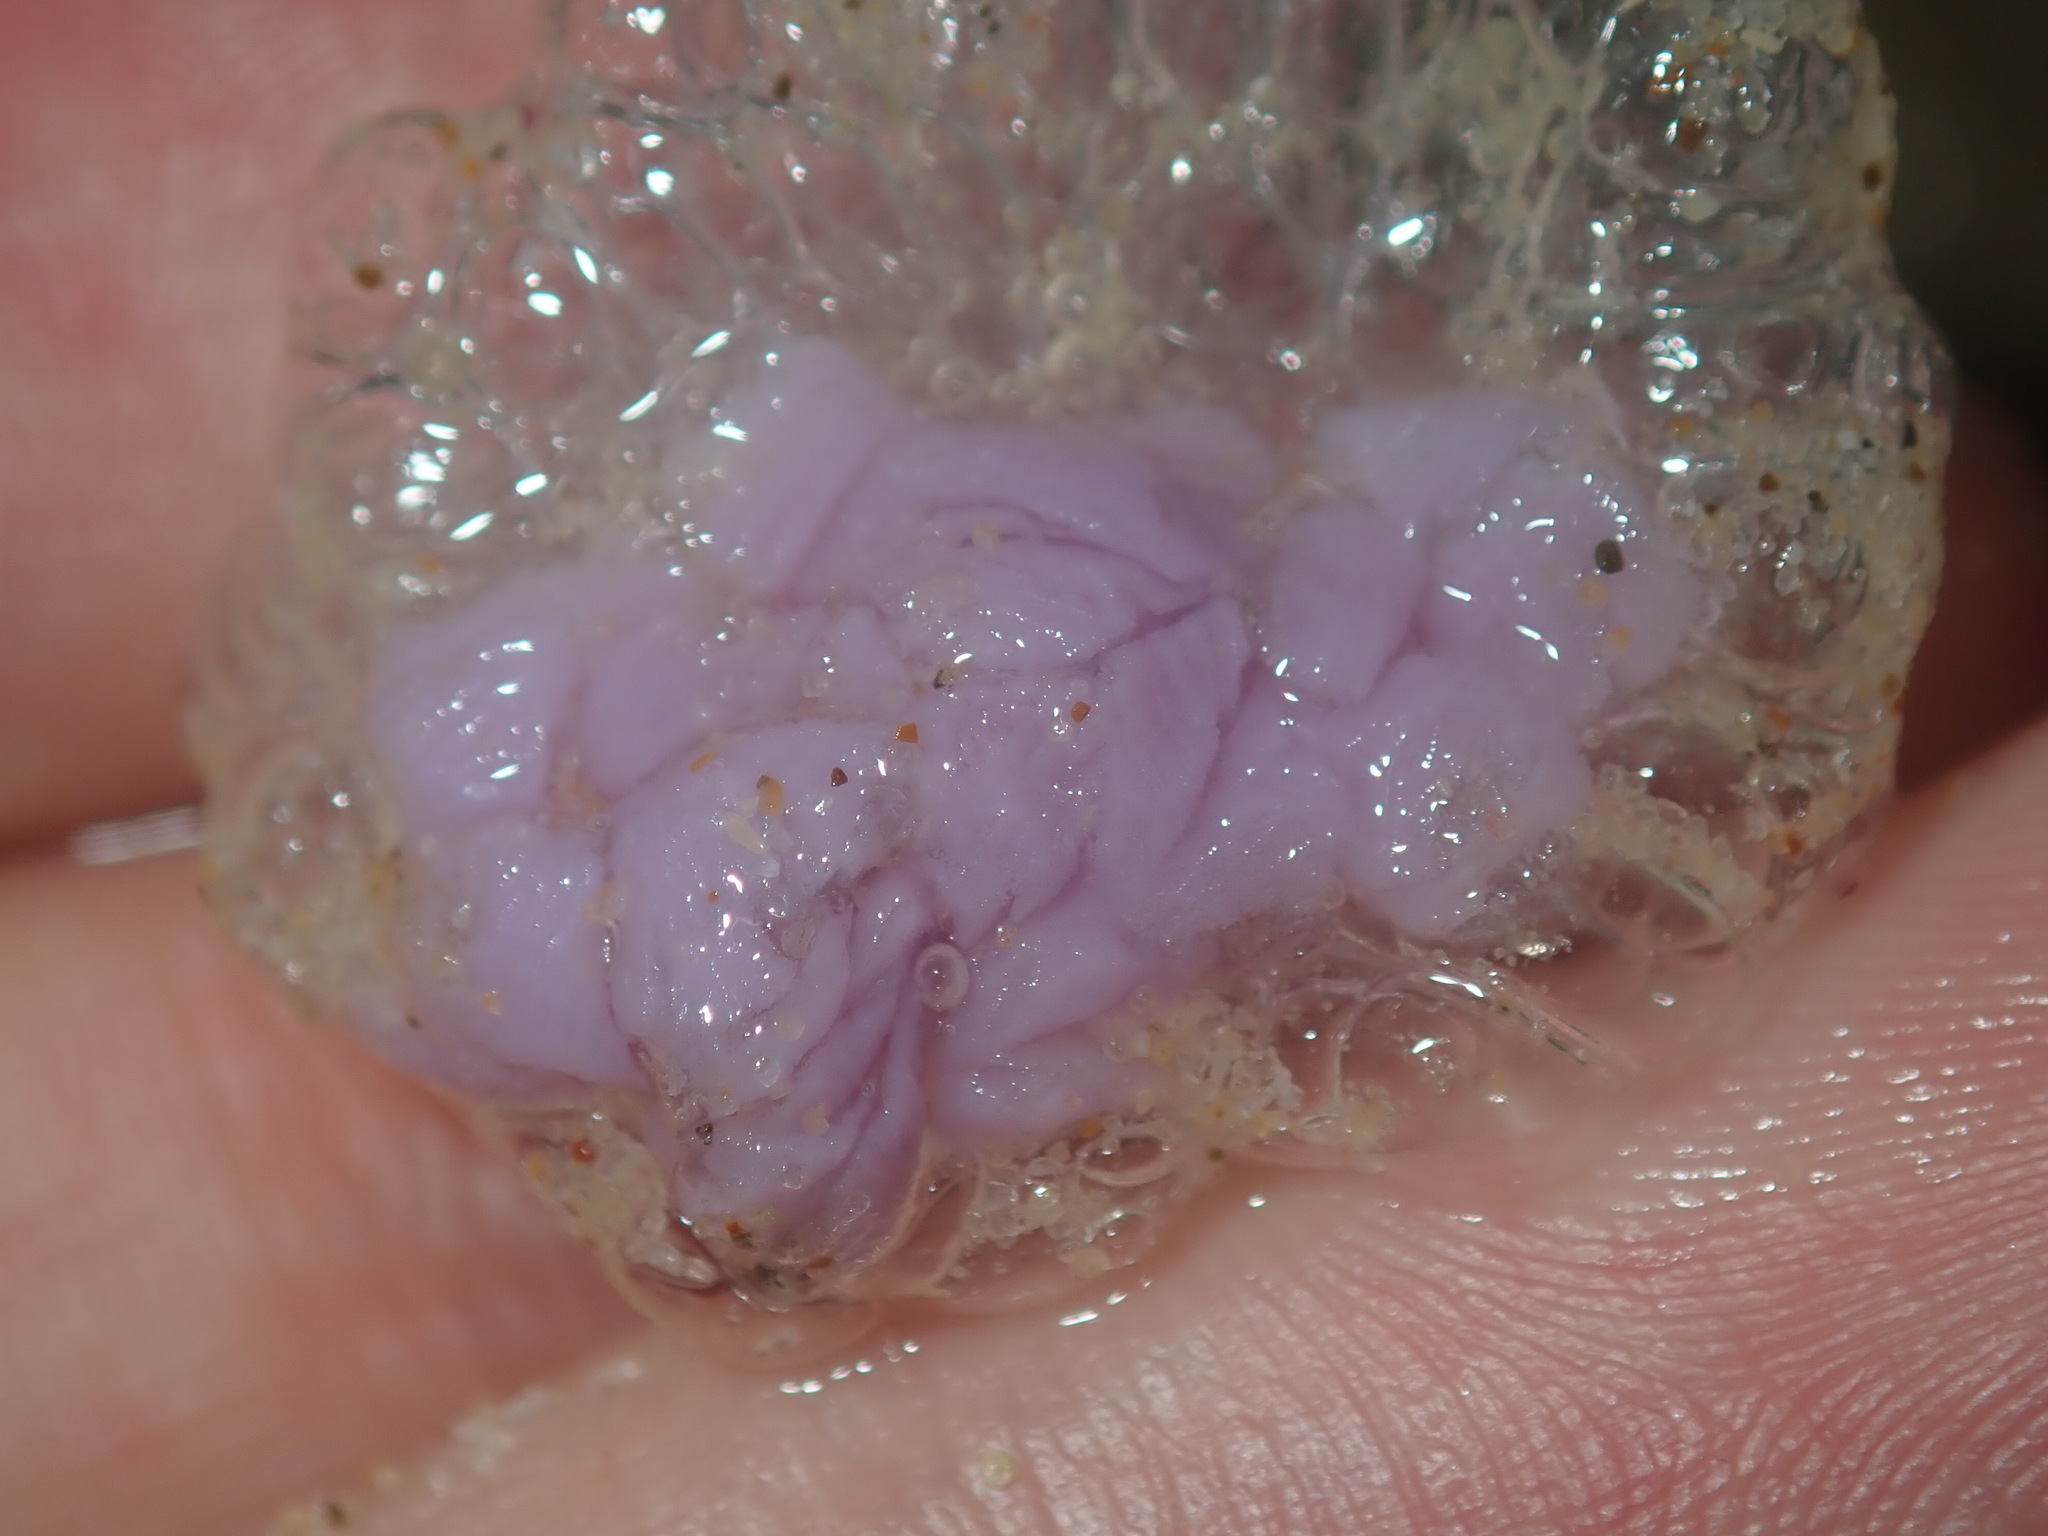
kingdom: Animalia
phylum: Mollusca
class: Gastropoda
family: Epitoniidae
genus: Janthina
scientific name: Janthina janthina
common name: Common janthina
